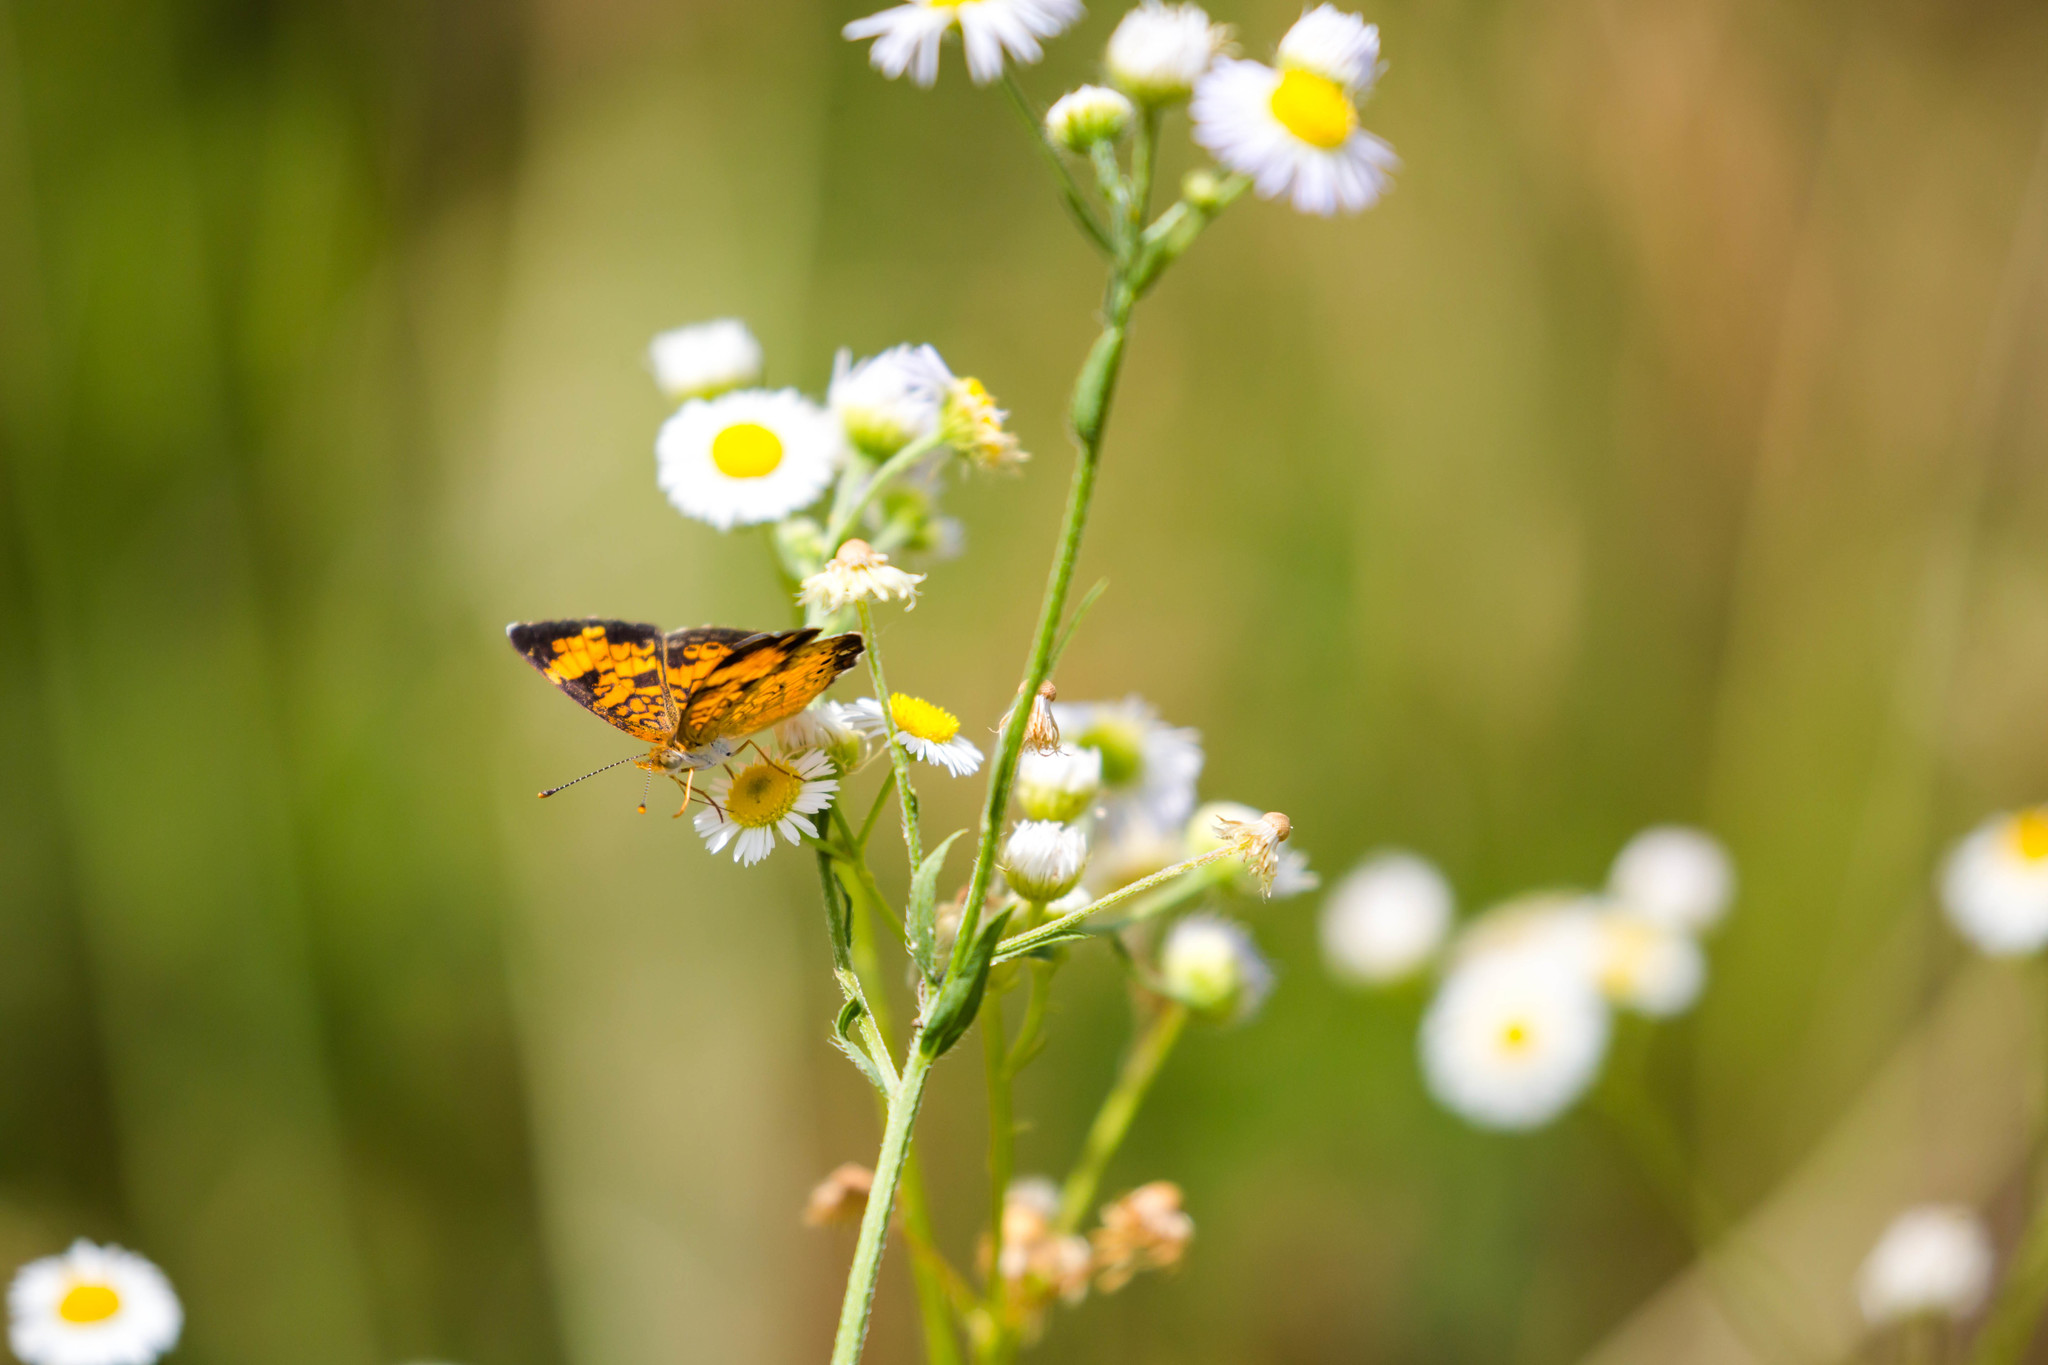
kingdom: Animalia
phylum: Arthropoda
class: Insecta
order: Lepidoptera
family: Nymphalidae
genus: Phyciodes
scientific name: Phyciodes tharos
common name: Pearl crescent
